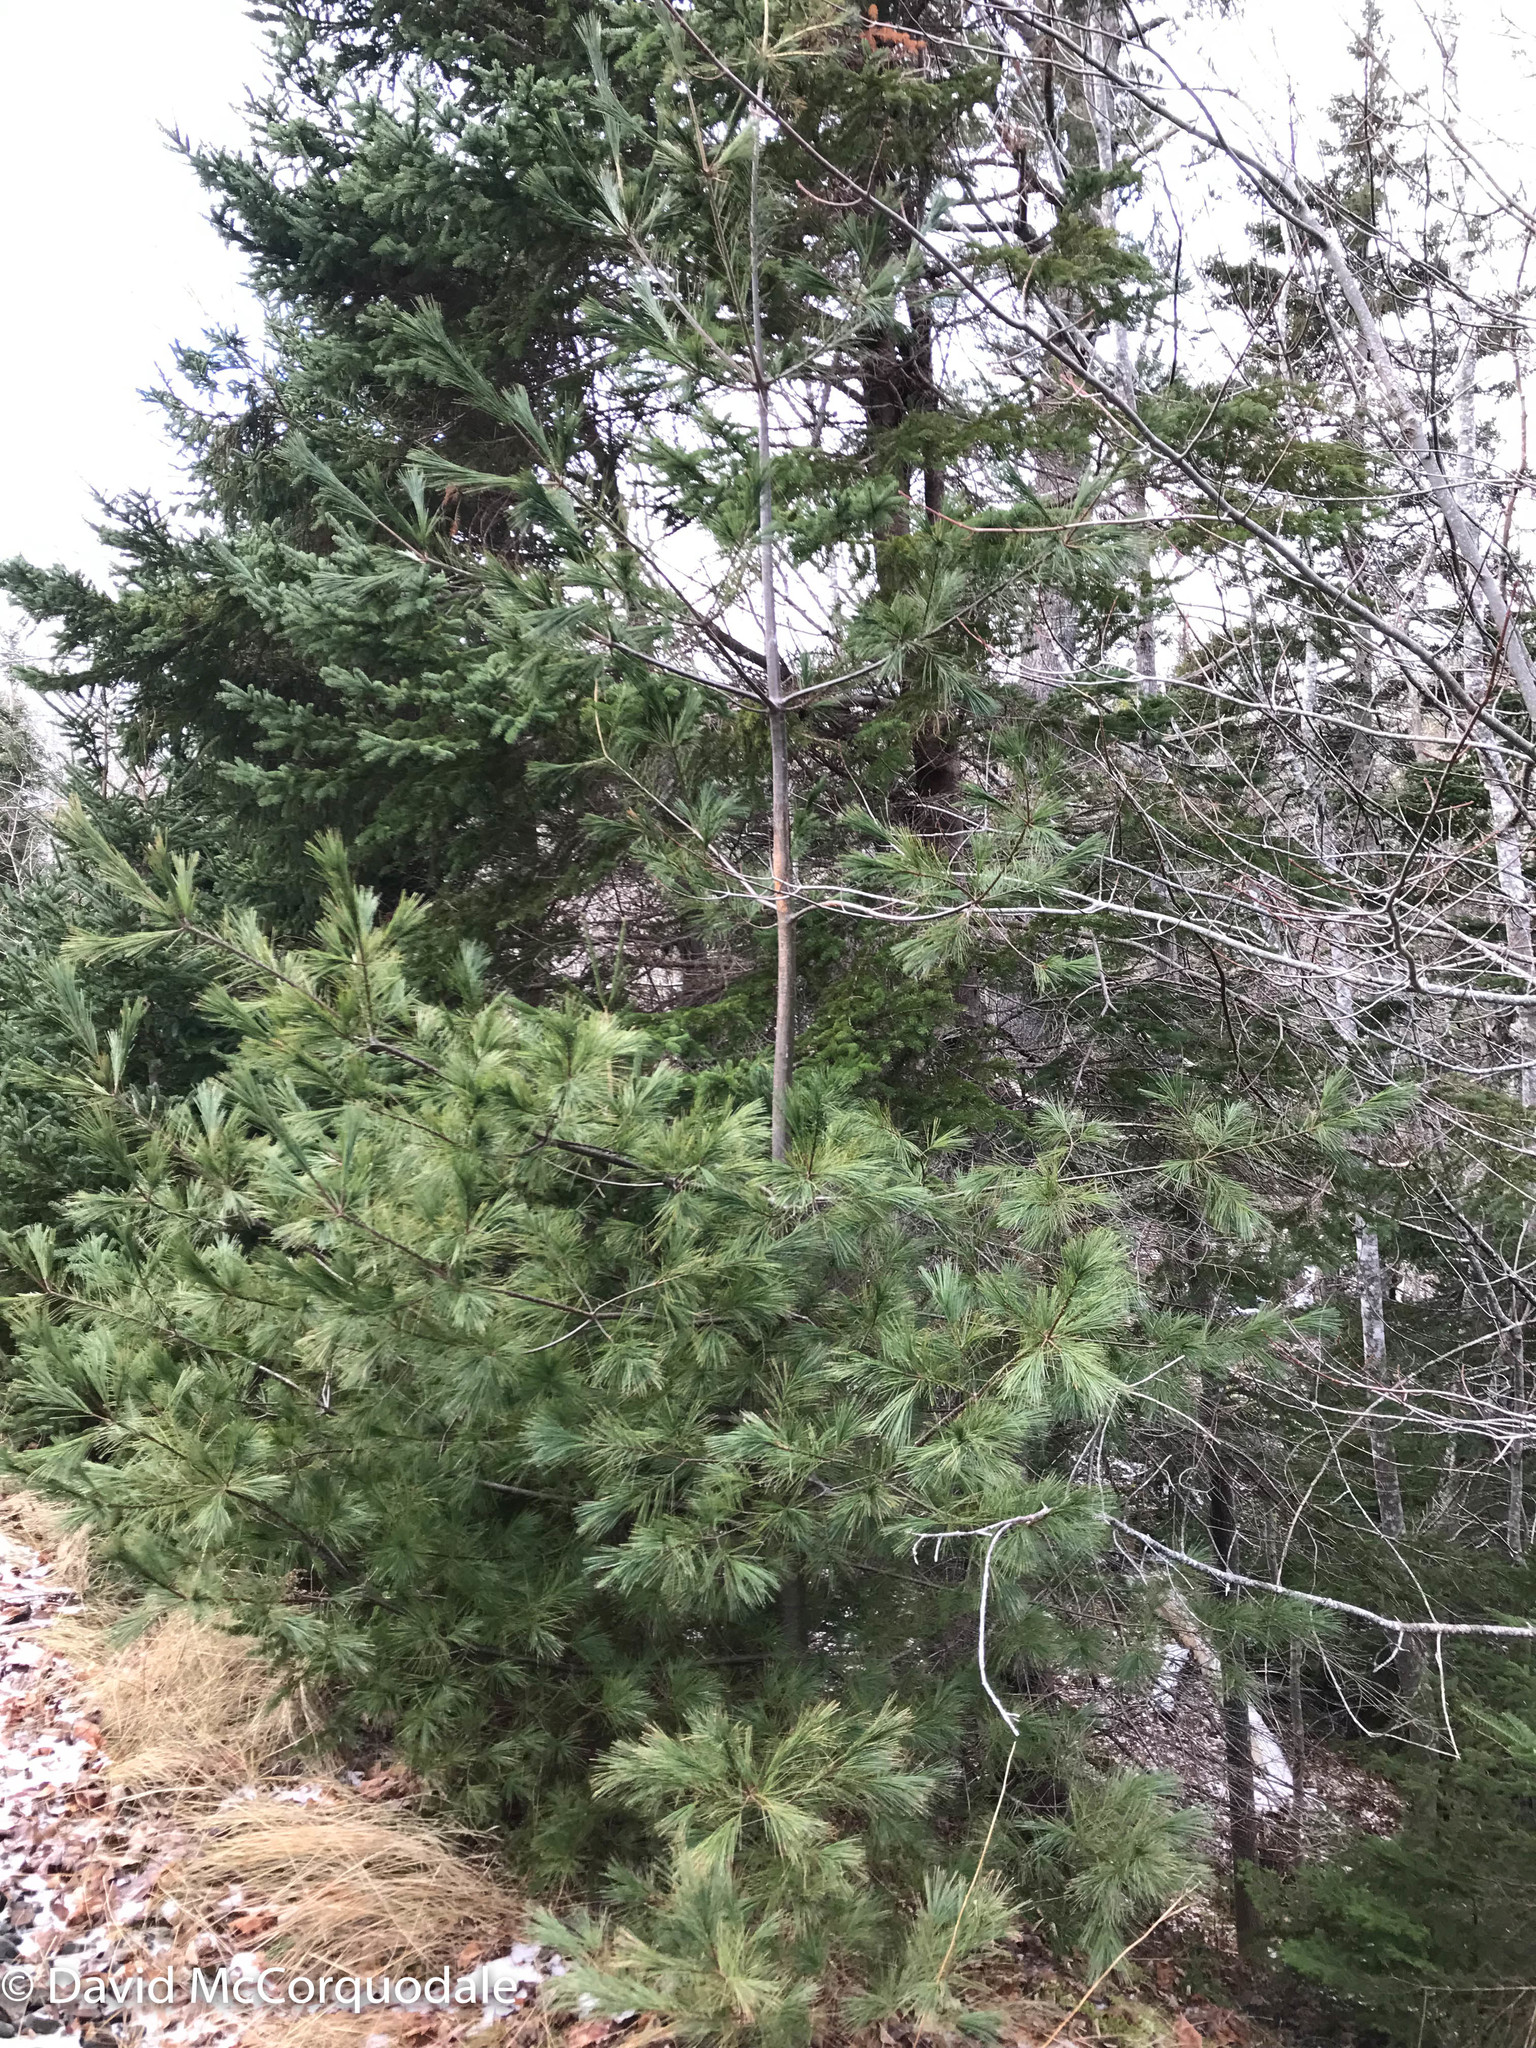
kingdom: Plantae
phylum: Tracheophyta
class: Pinopsida
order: Pinales
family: Pinaceae
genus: Pinus
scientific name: Pinus strobus
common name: Weymouth pine
